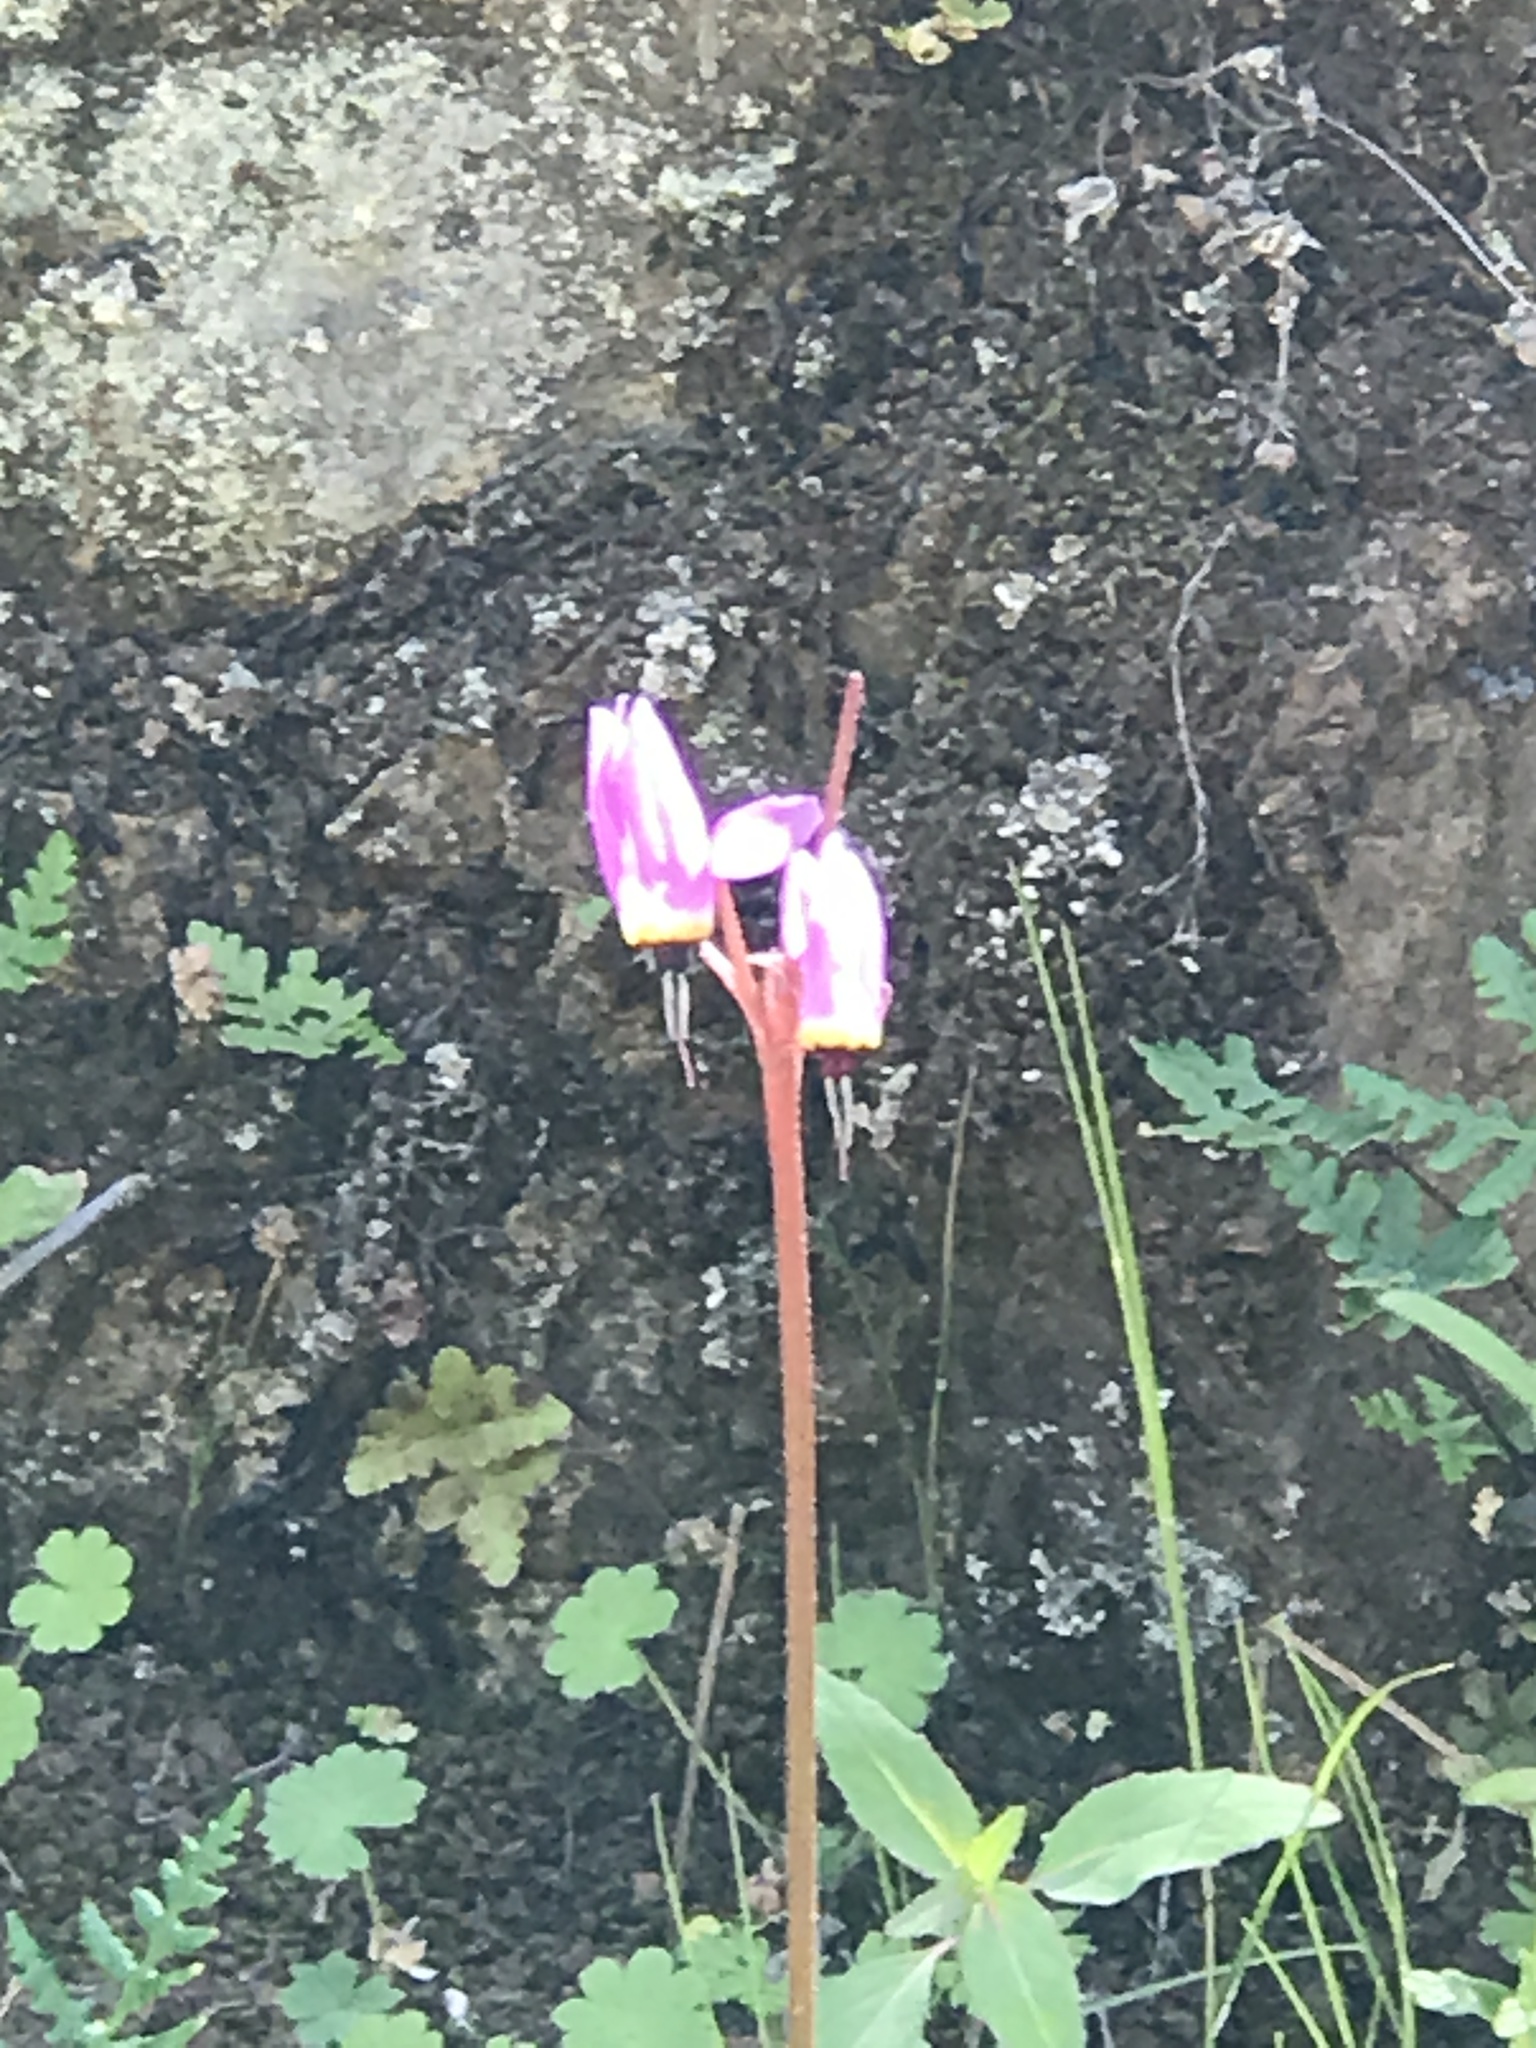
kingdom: Plantae
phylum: Tracheophyta
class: Magnoliopsida
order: Ericales
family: Primulaceae
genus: Dodecatheon
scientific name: Dodecatheon hendersonii
